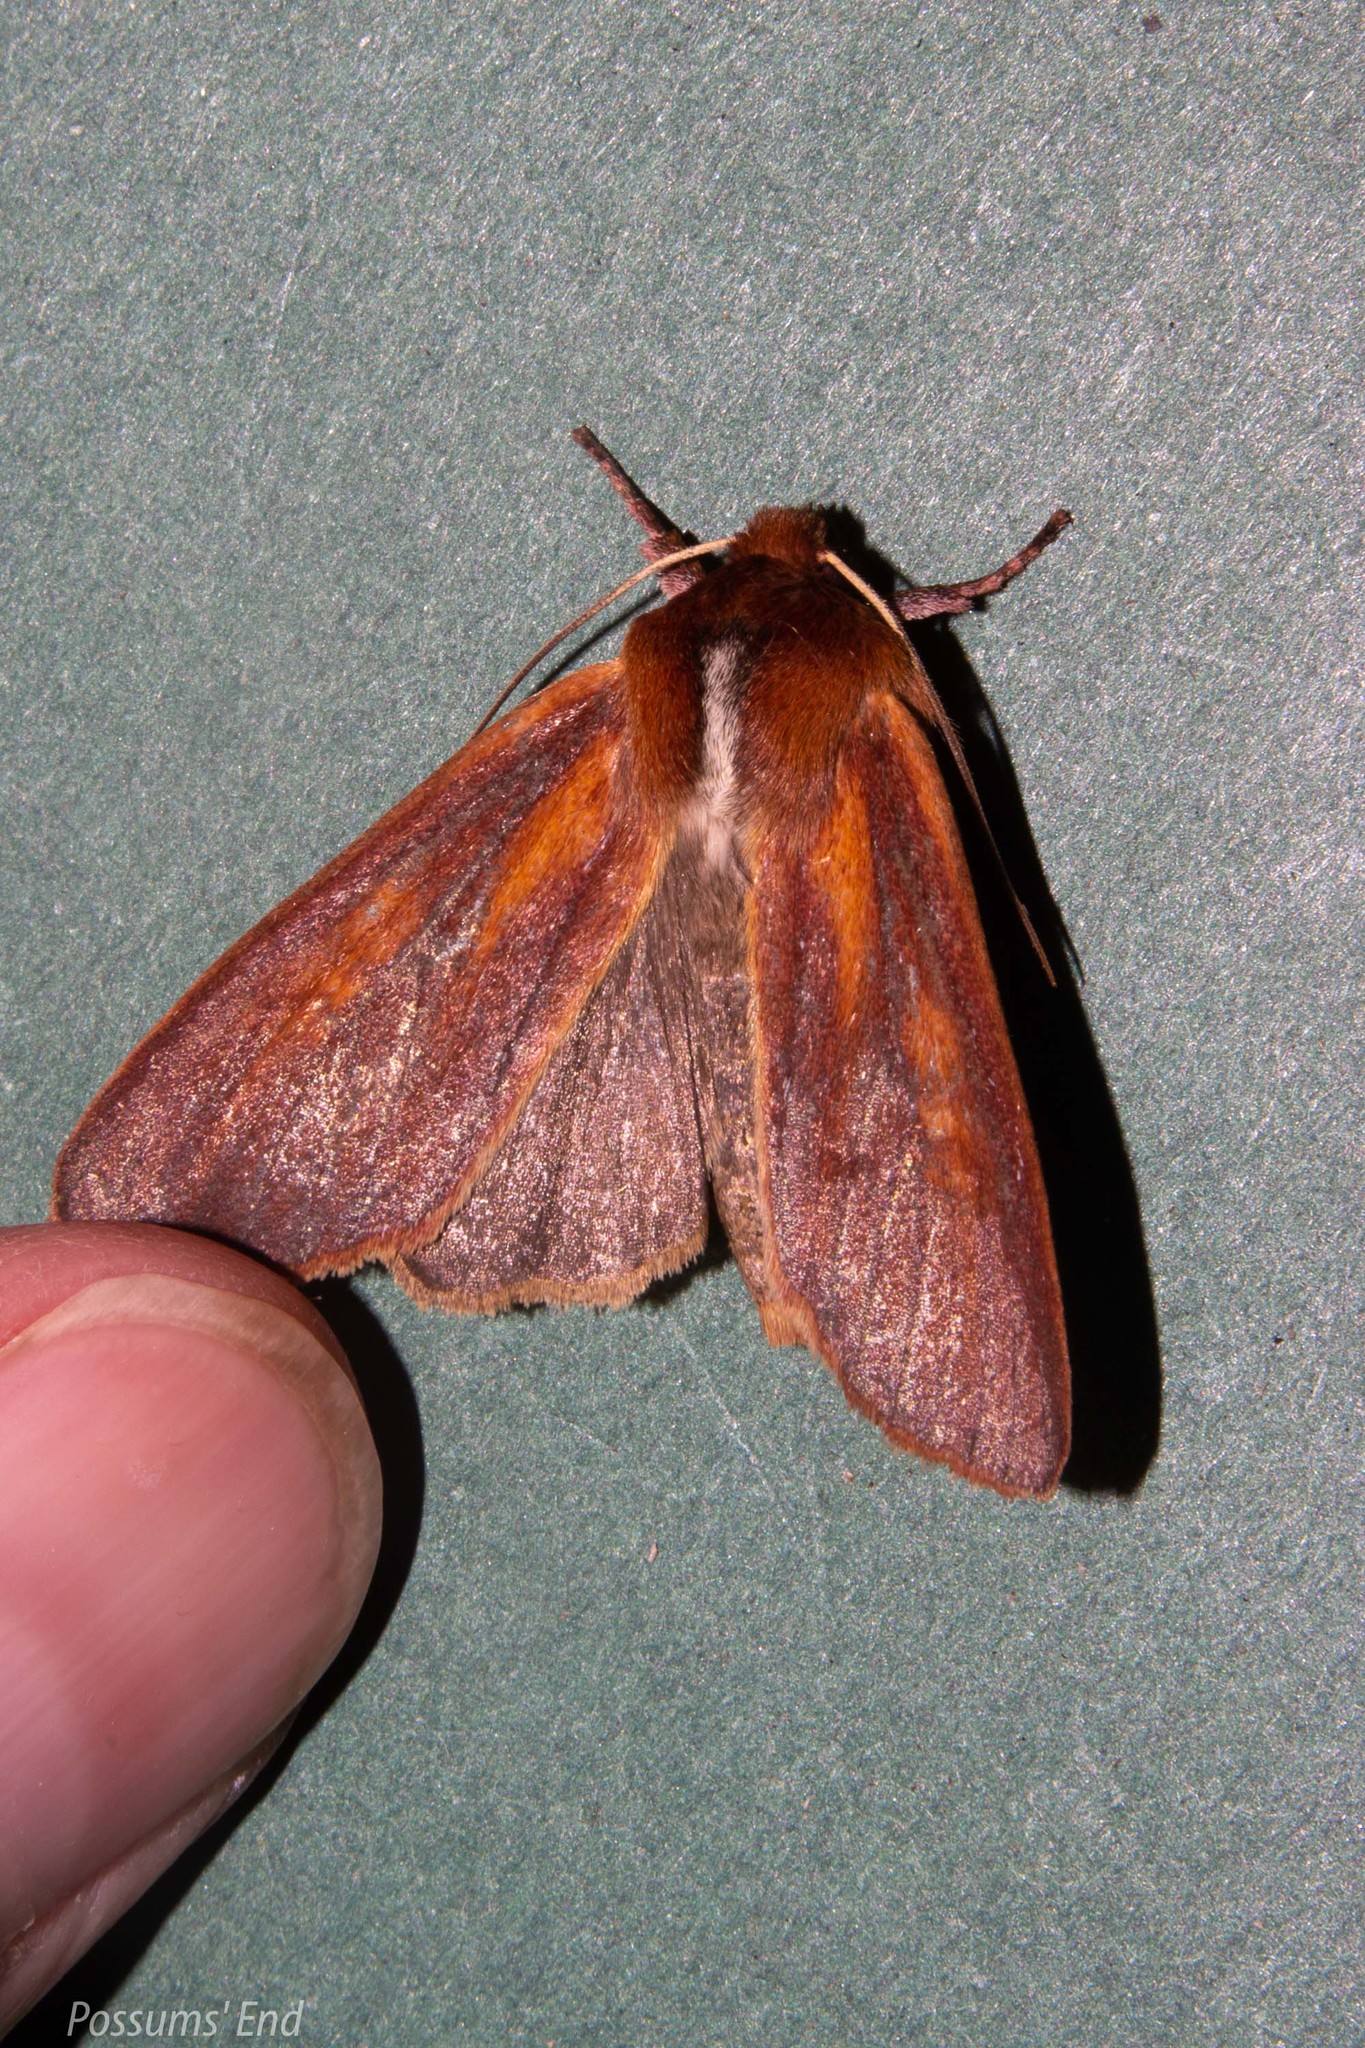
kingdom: Animalia
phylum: Arthropoda
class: Insecta
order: Lepidoptera
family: Noctuidae
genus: Ichneutica
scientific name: Ichneutica
